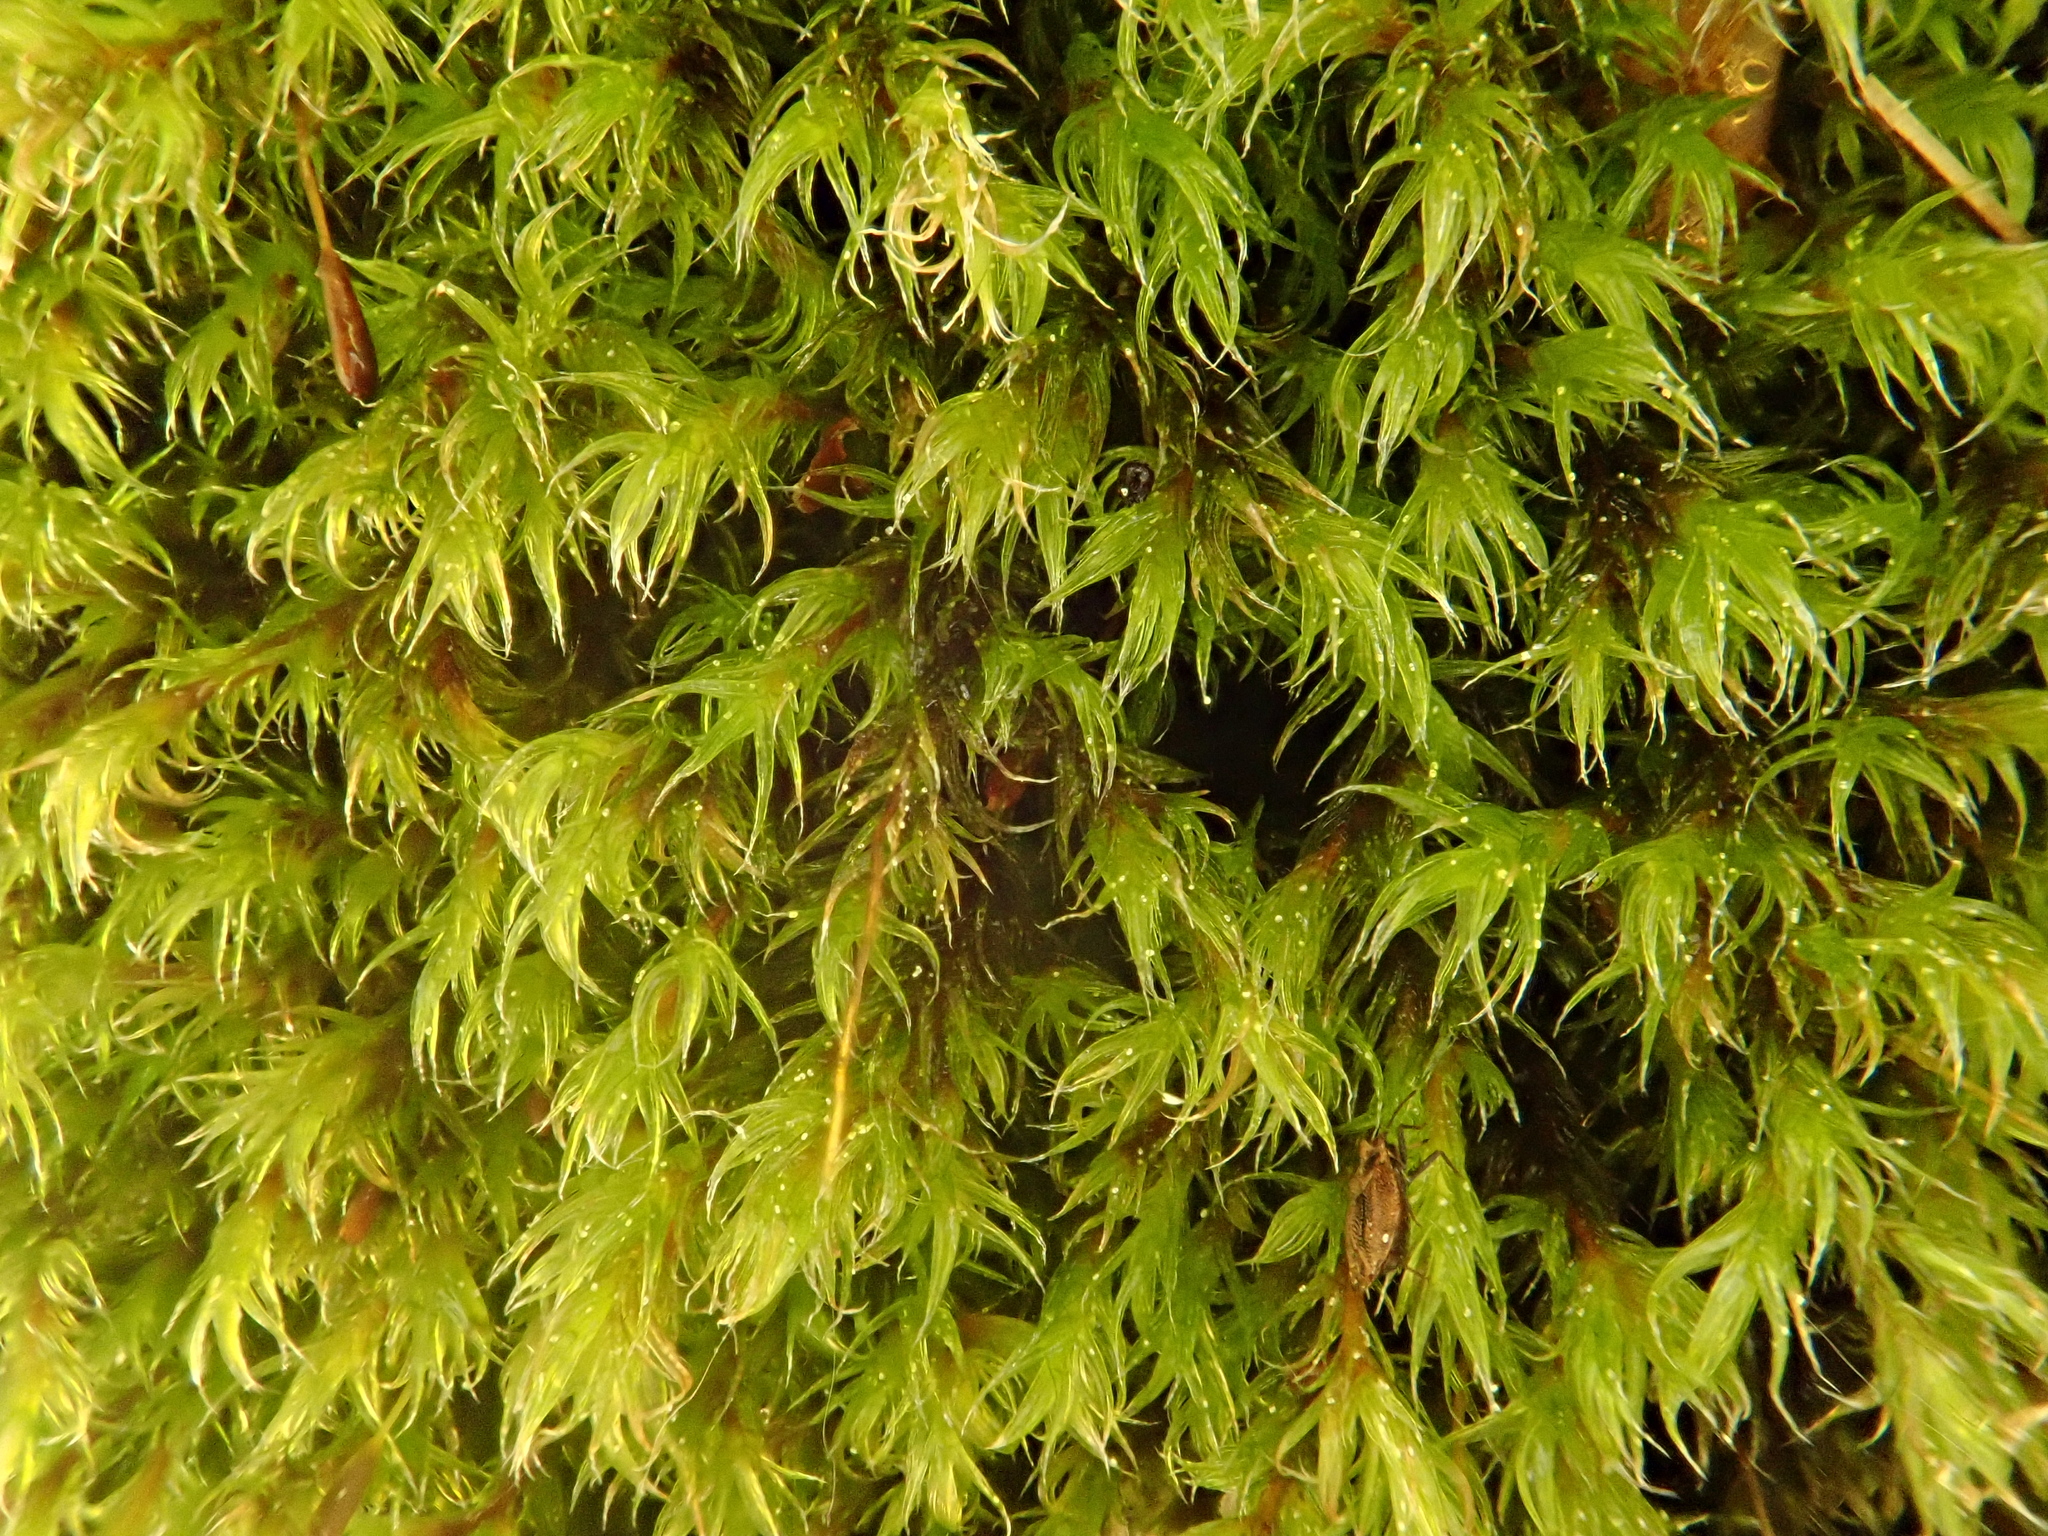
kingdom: Plantae
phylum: Bryophyta
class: Bryopsida
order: Grimmiales
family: Grimmiaceae
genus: Bucklandiella
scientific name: Bucklandiella affinis
